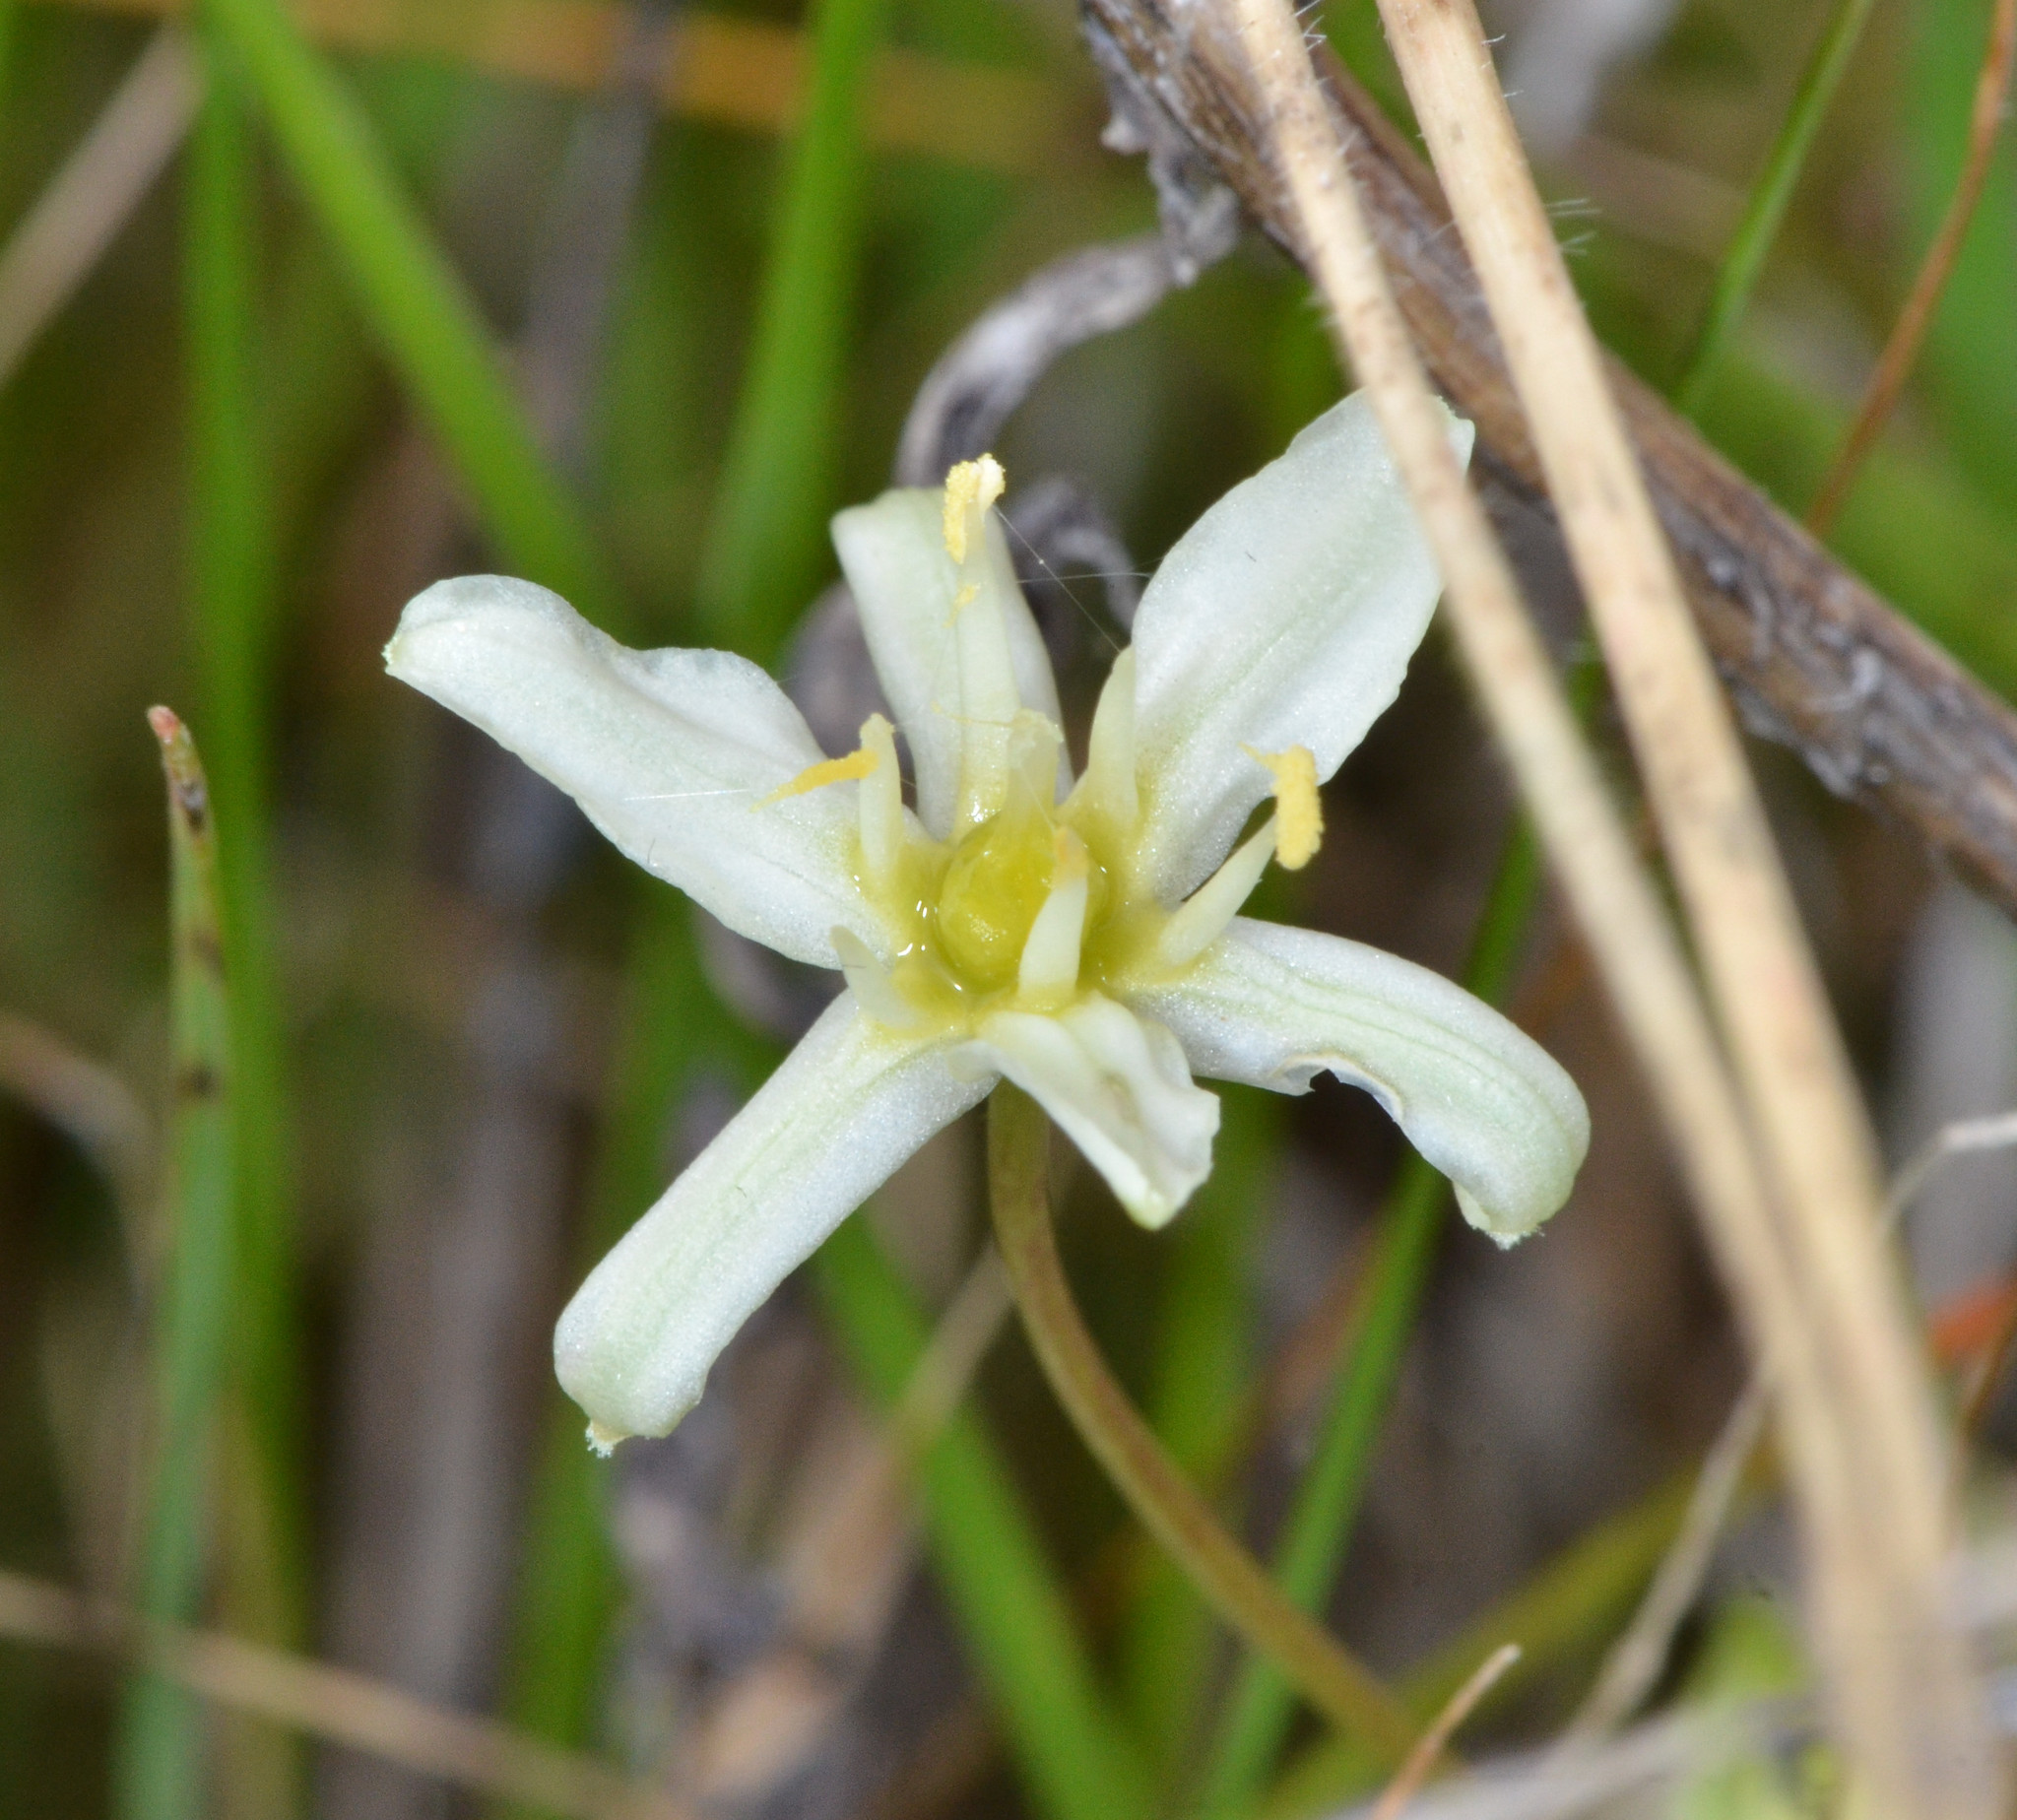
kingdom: Plantae
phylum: Tracheophyta
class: Liliopsida
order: Asparagales
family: Asparagaceae
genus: Muilla
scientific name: Muilla maritima
